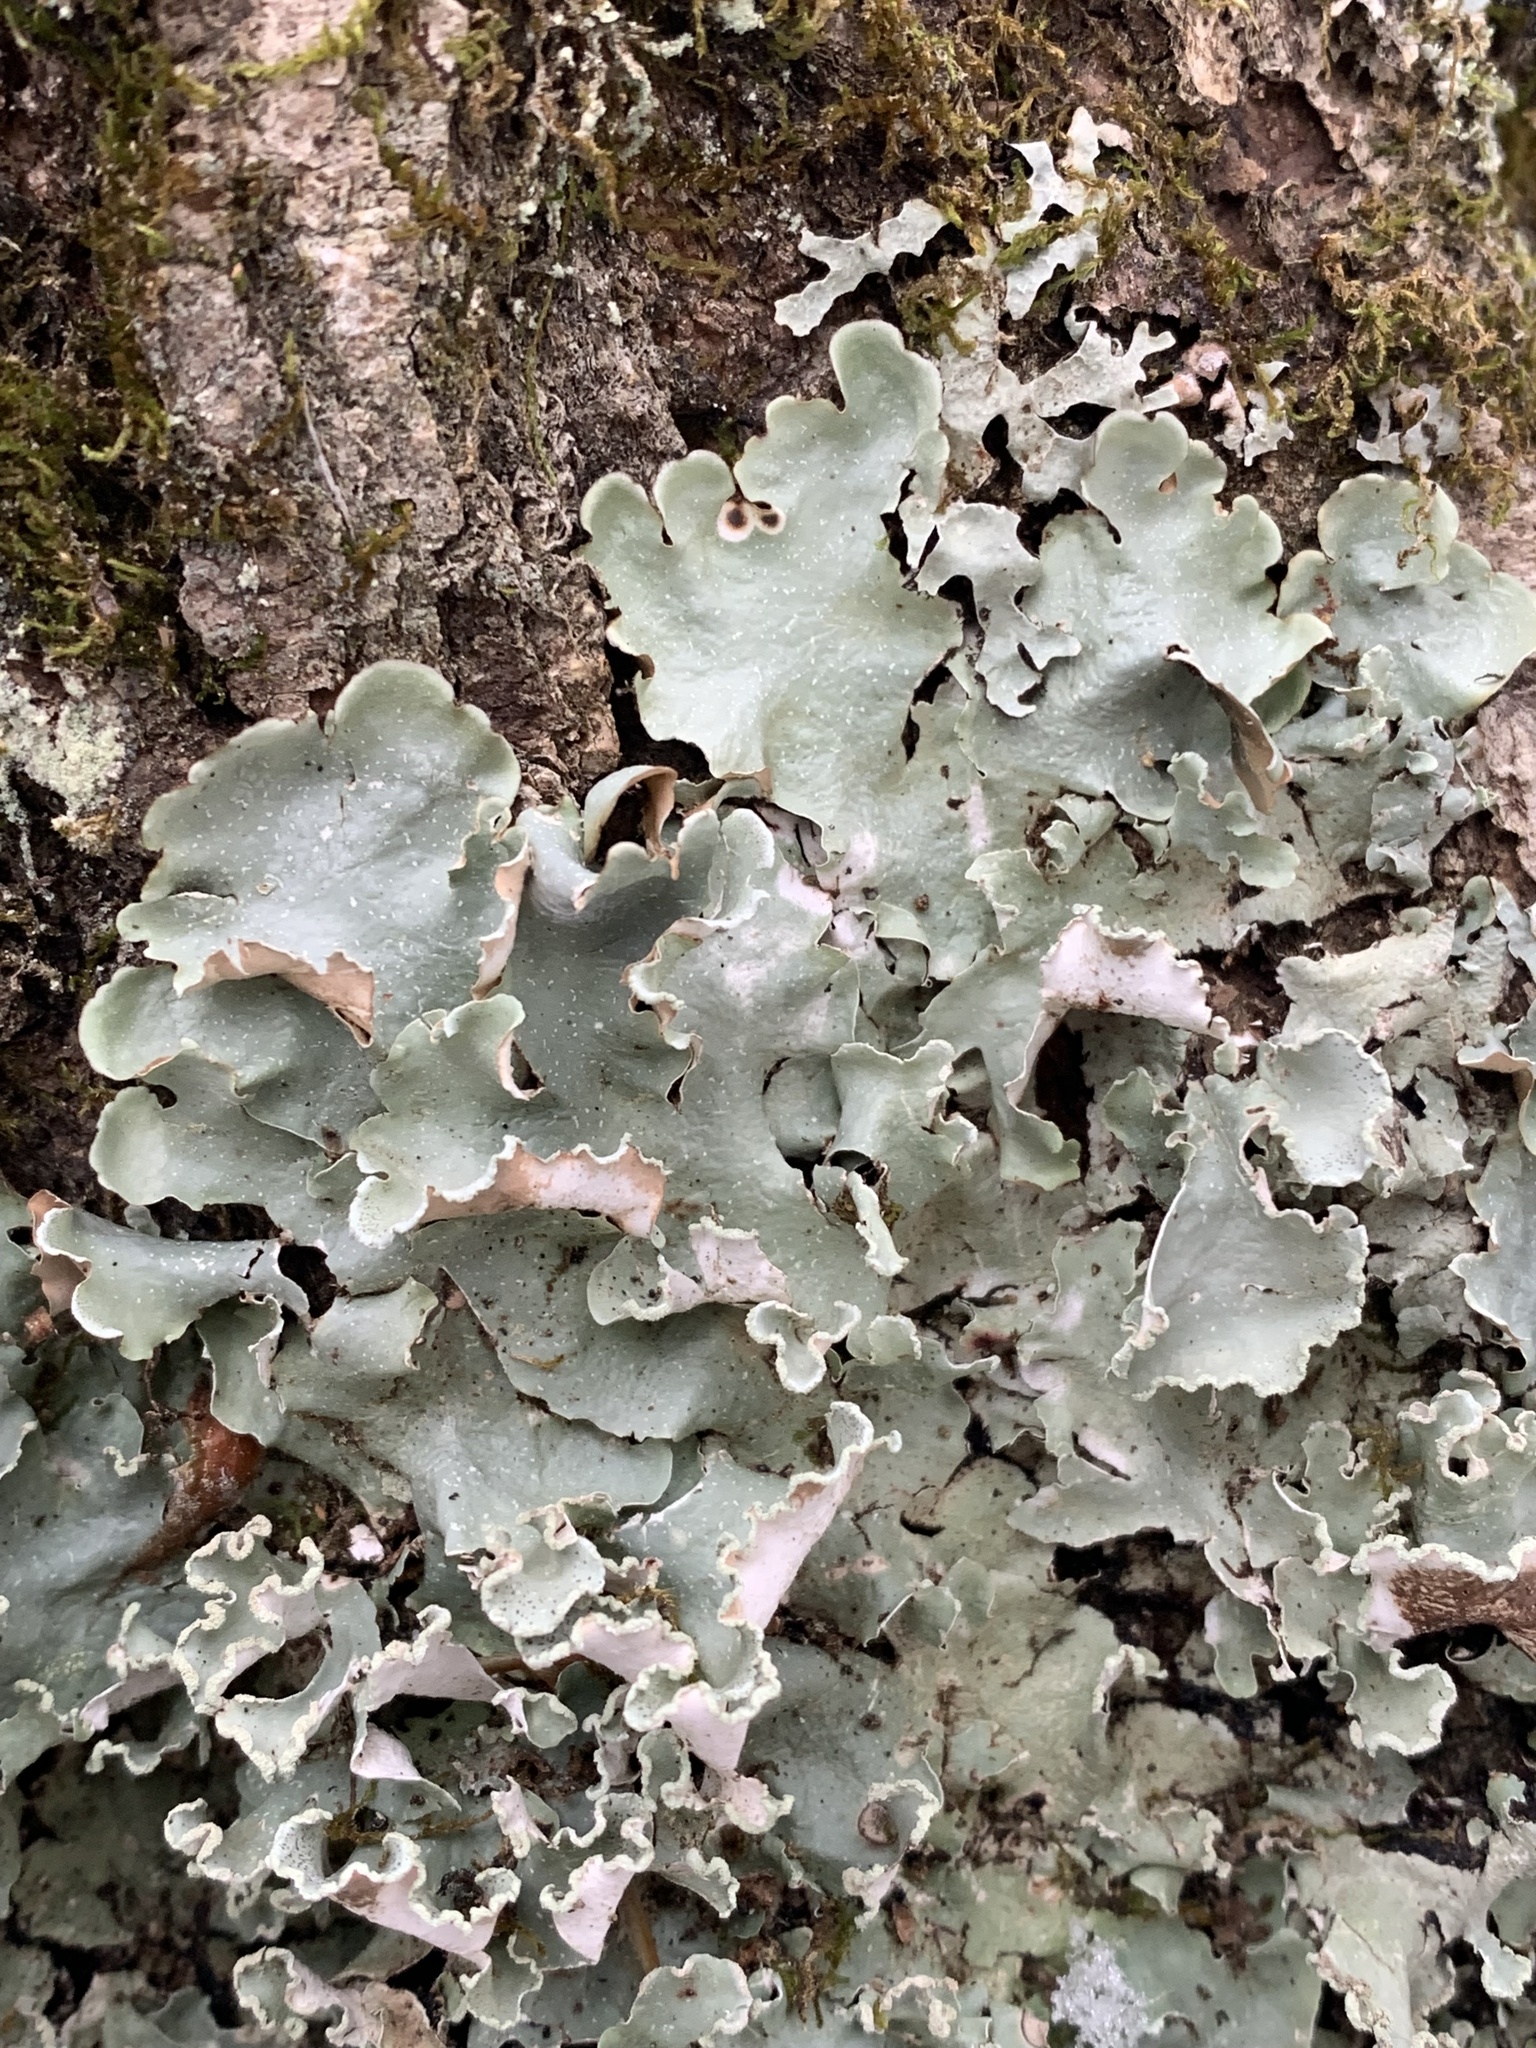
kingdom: Fungi
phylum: Ascomycota
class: Lecanoromycetes
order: Lecanorales
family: Parmeliaceae
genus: Cetrelia
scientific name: Cetrelia olivetorum
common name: Sea storm lichen
